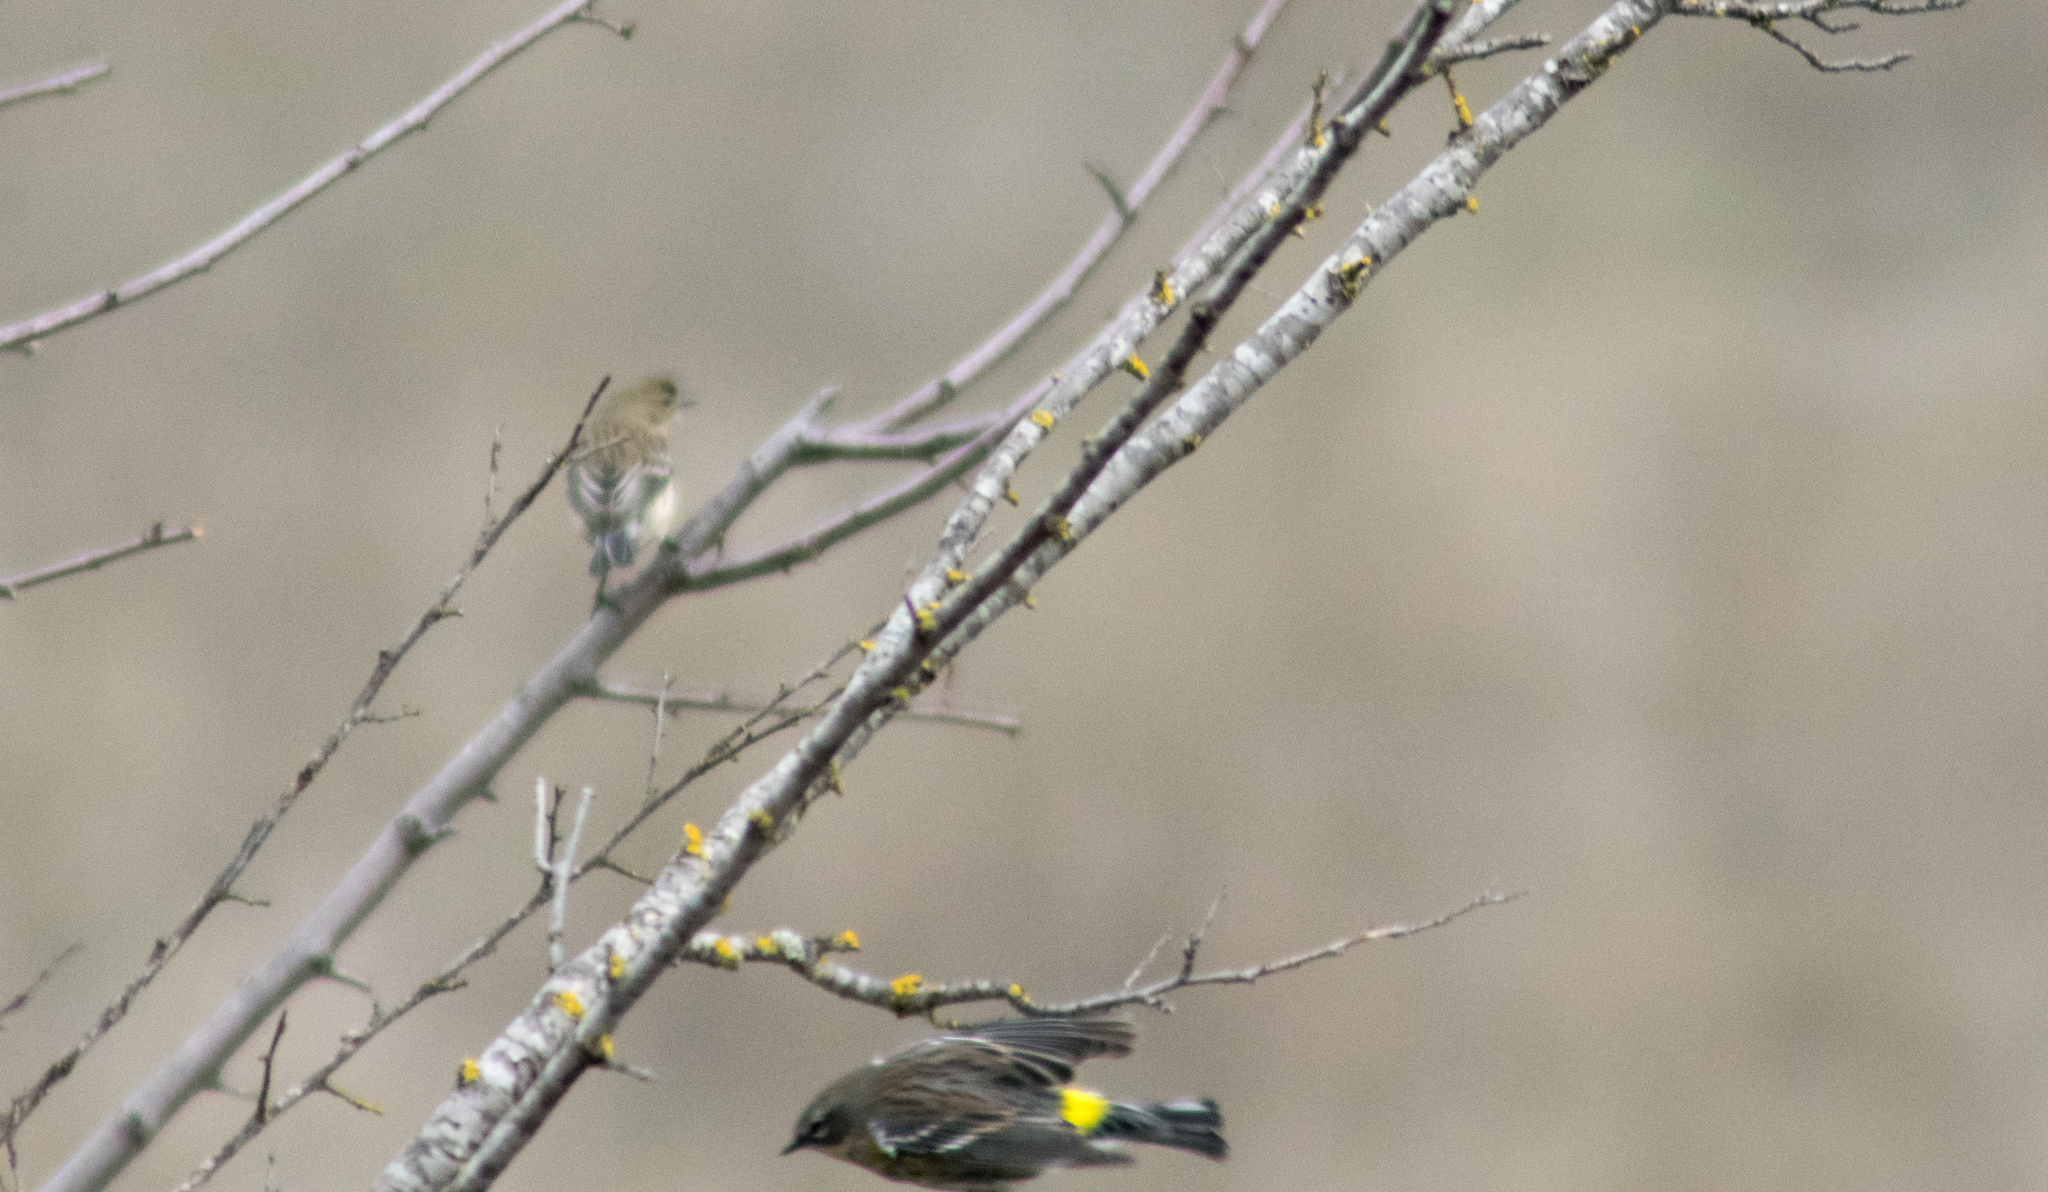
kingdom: Animalia
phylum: Chordata
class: Aves
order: Passeriformes
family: Parulidae
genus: Setophaga
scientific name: Setophaga coronata
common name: Myrtle warbler
